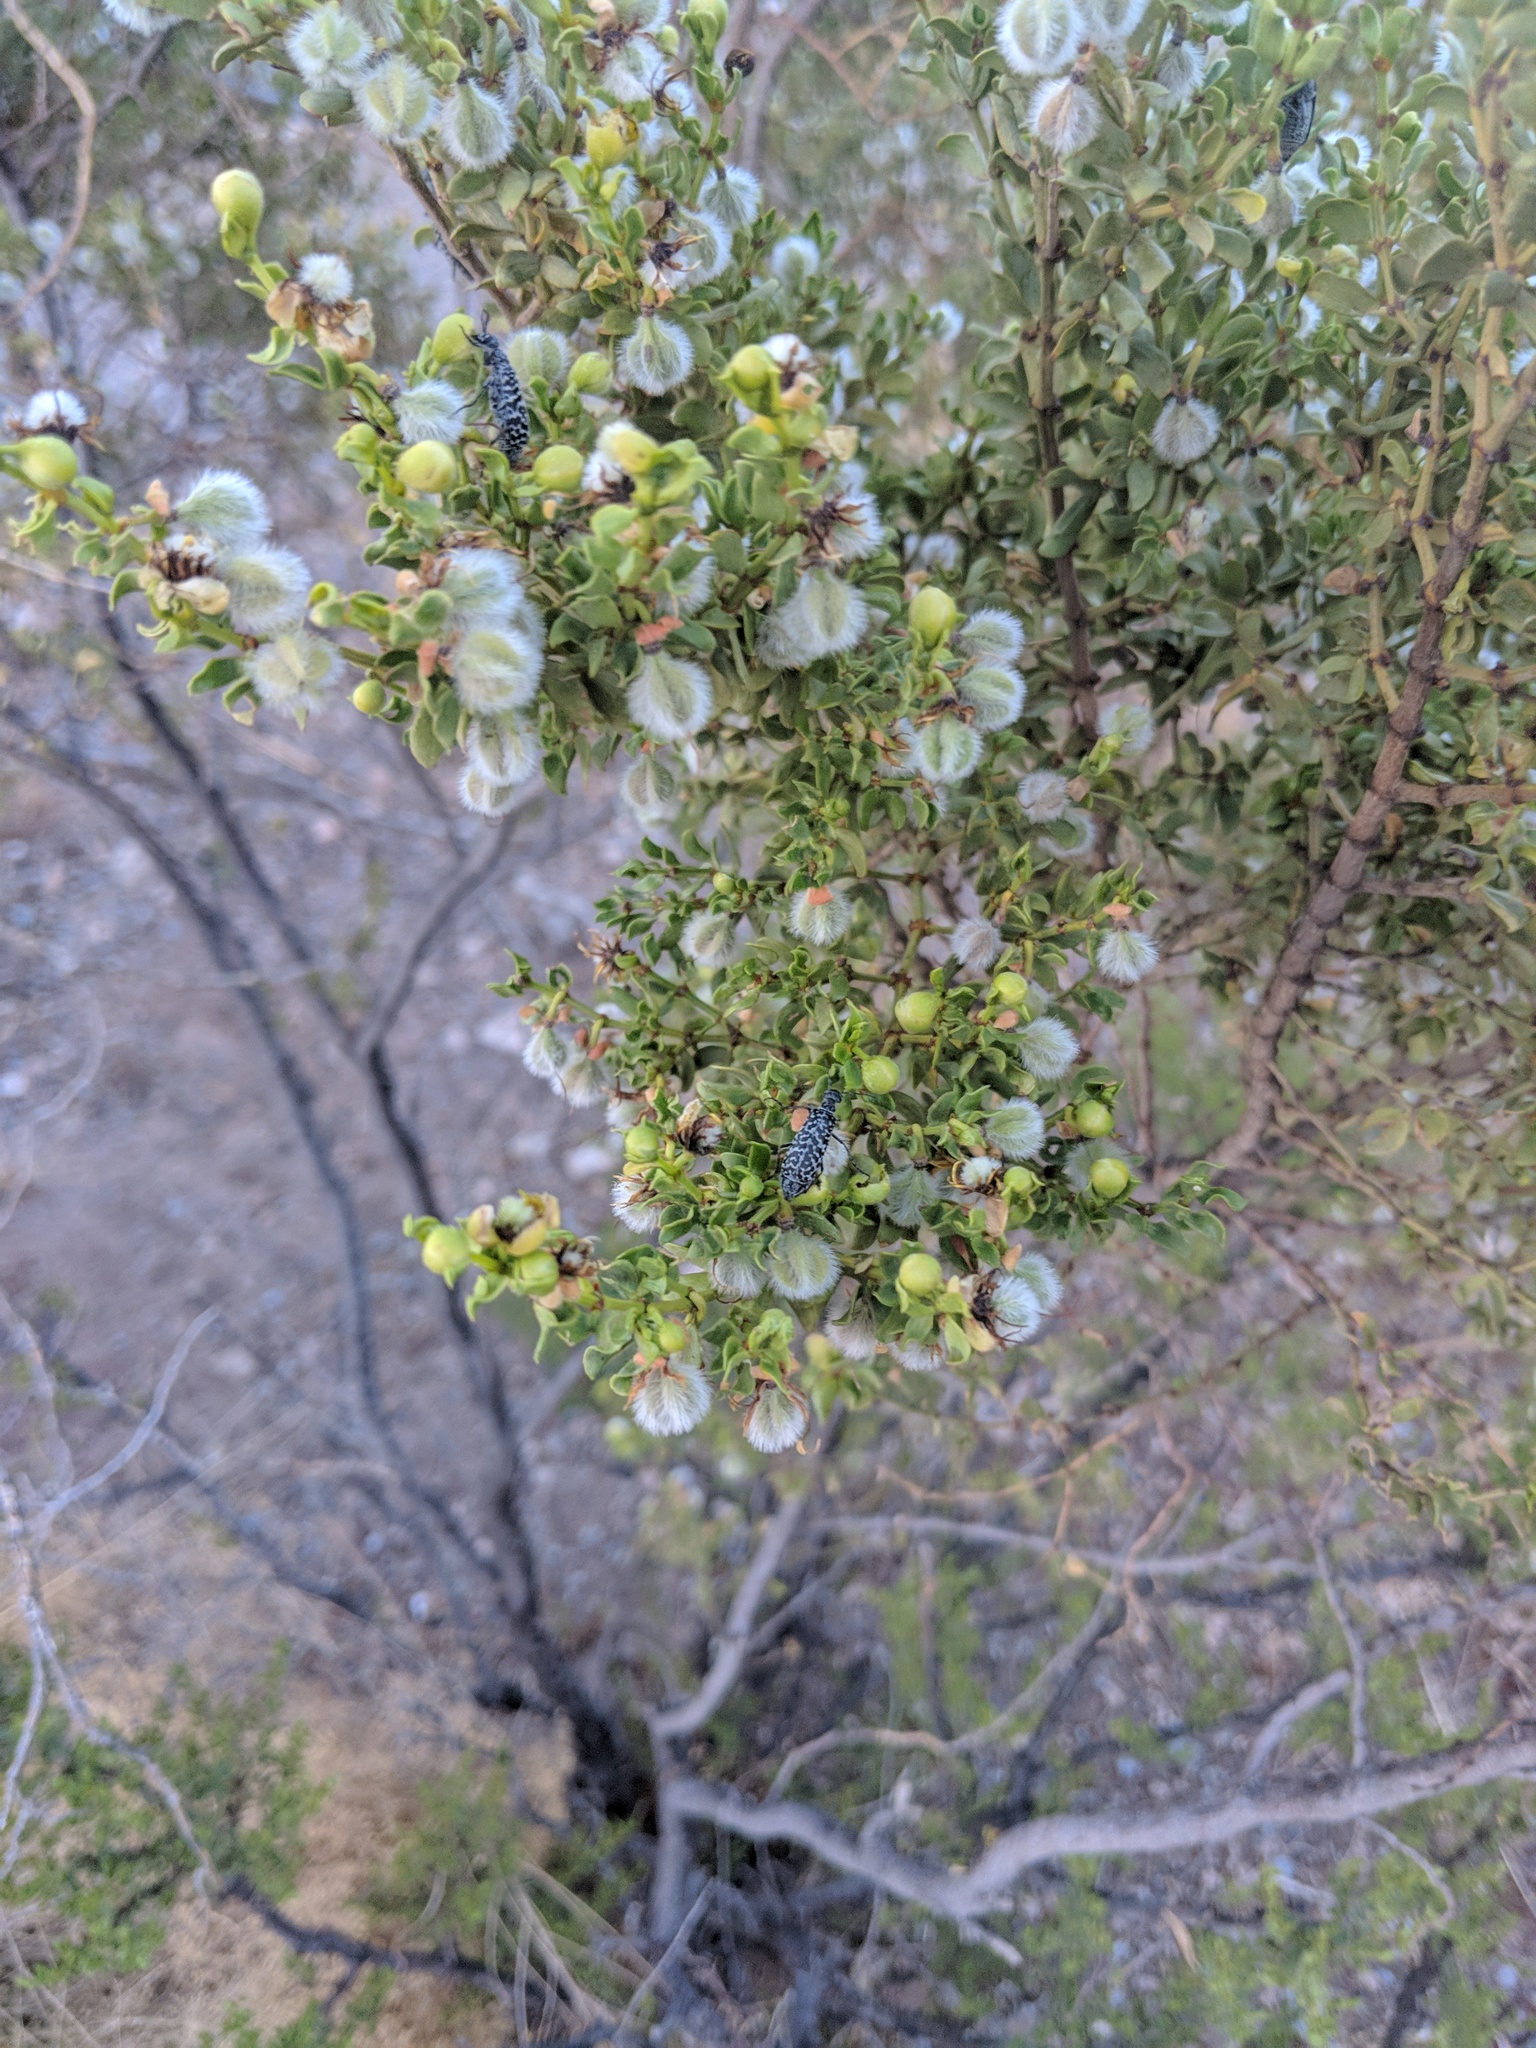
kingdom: Plantae
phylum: Tracheophyta
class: Magnoliopsida
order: Zygophyllales
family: Zygophyllaceae
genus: Larrea
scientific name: Larrea tridentata
